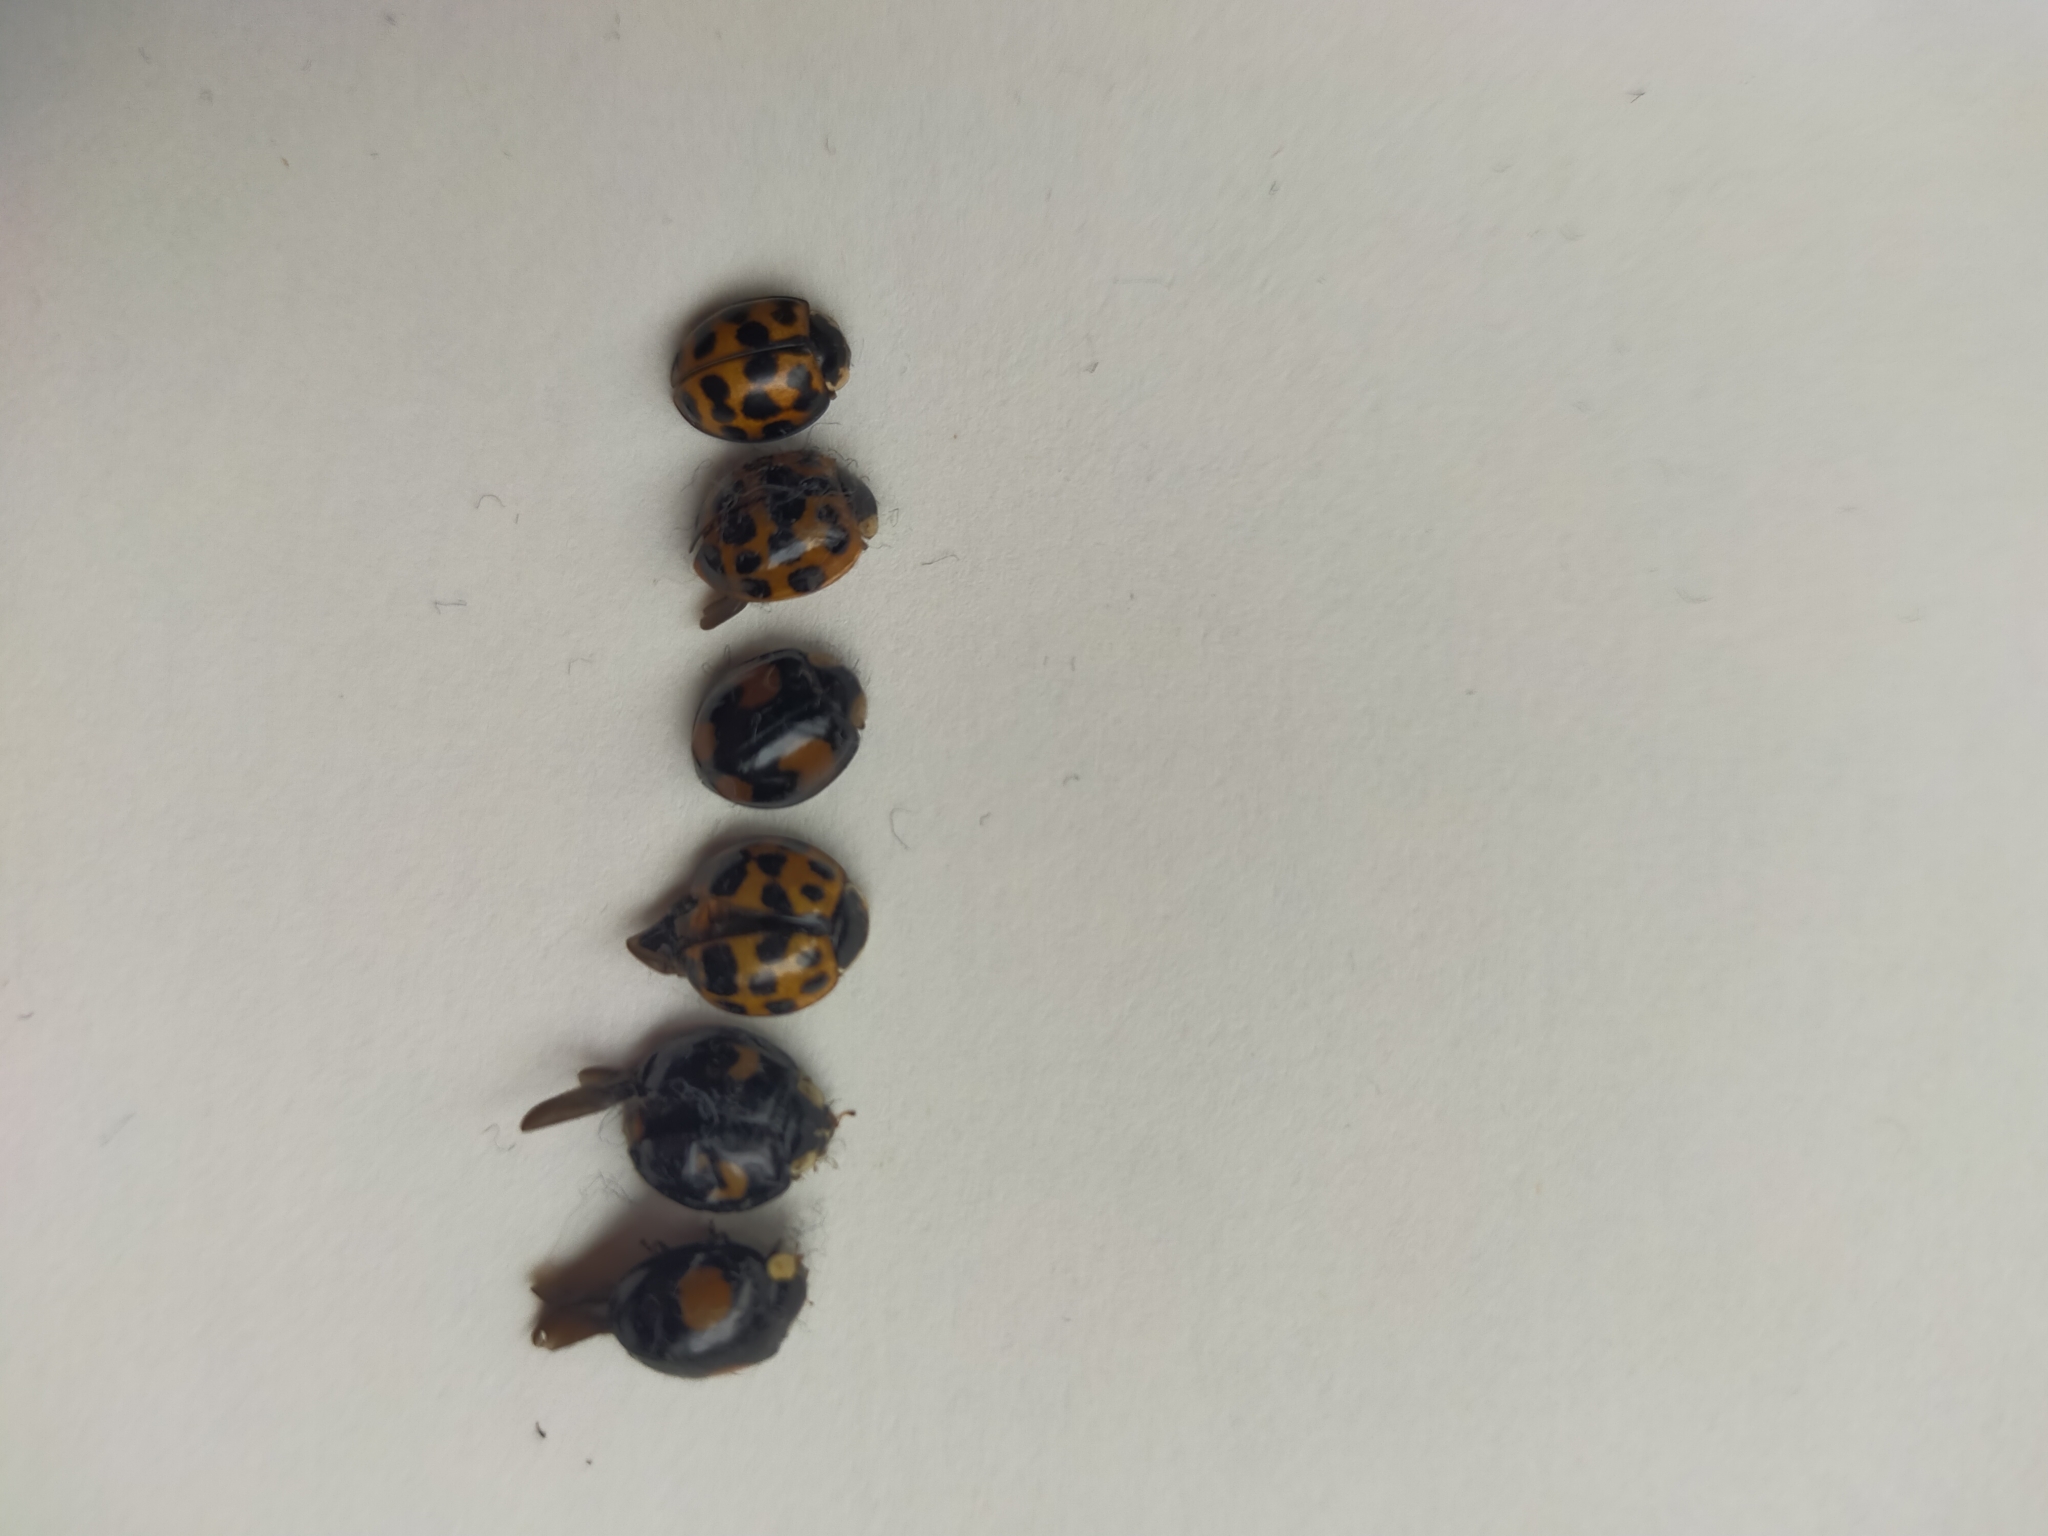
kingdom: Animalia
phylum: Arthropoda
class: Insecta
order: Coleoptera
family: Coccinellidae
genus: Harmonia
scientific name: Harmonia axyridis
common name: Harlequin ladybird
